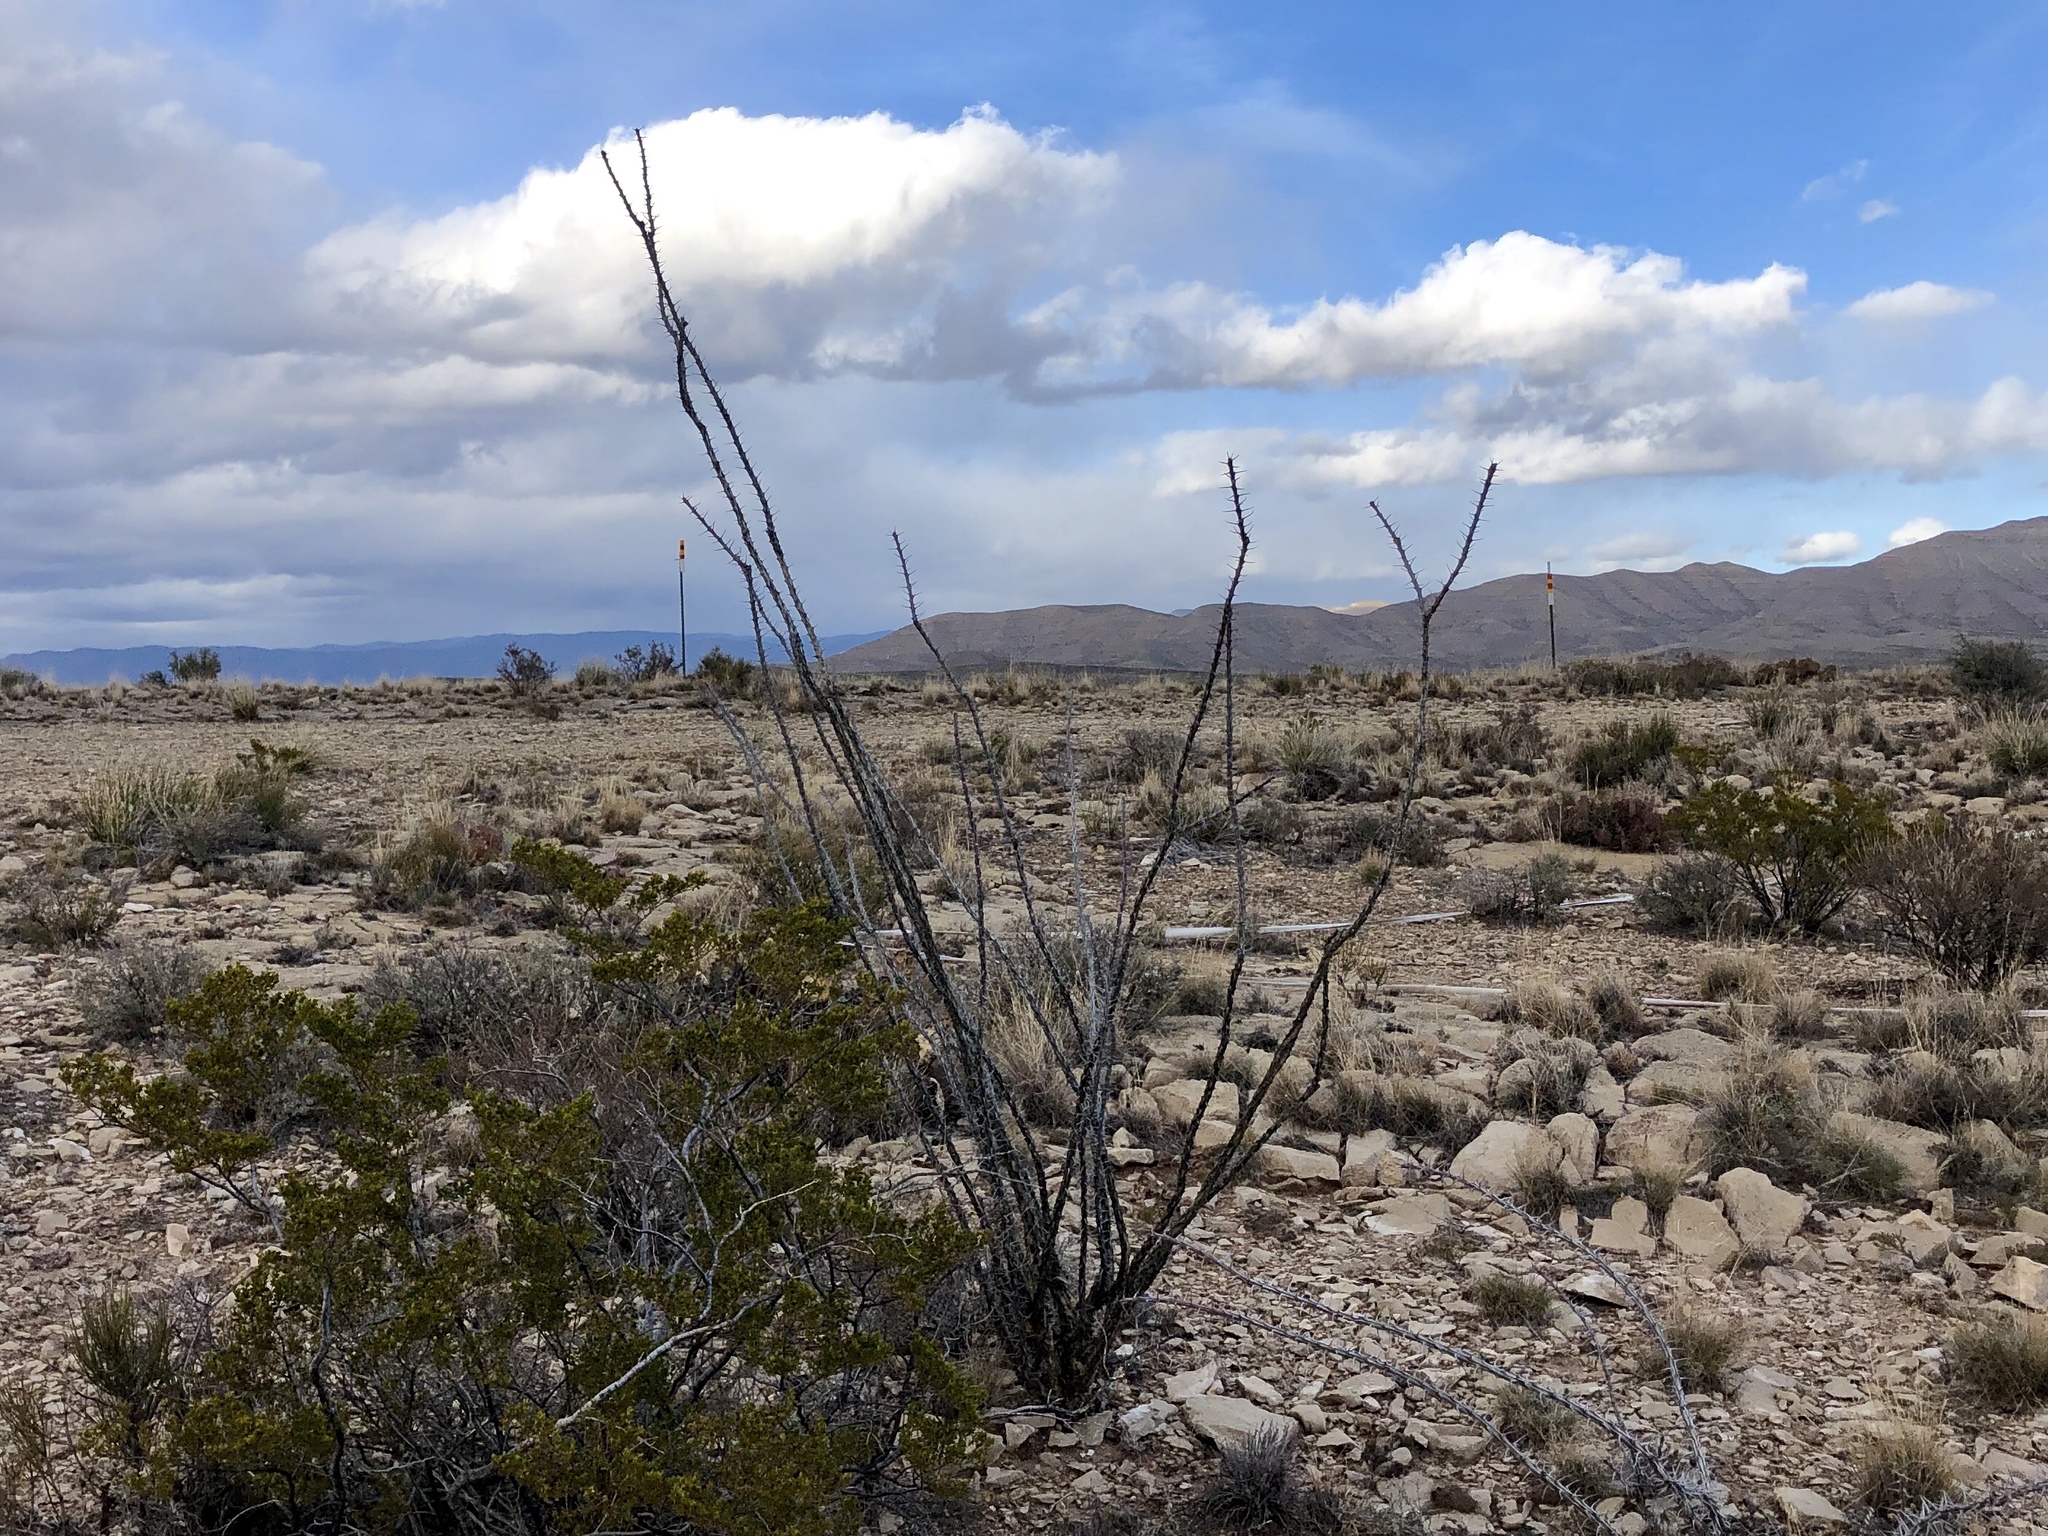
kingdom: Plantae
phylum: Tracheophyta
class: Magnoliopsida
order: Ericales
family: Fouquieriaceae
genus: Fouquieria
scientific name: Fouquieria splendens
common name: Vine-cactus
